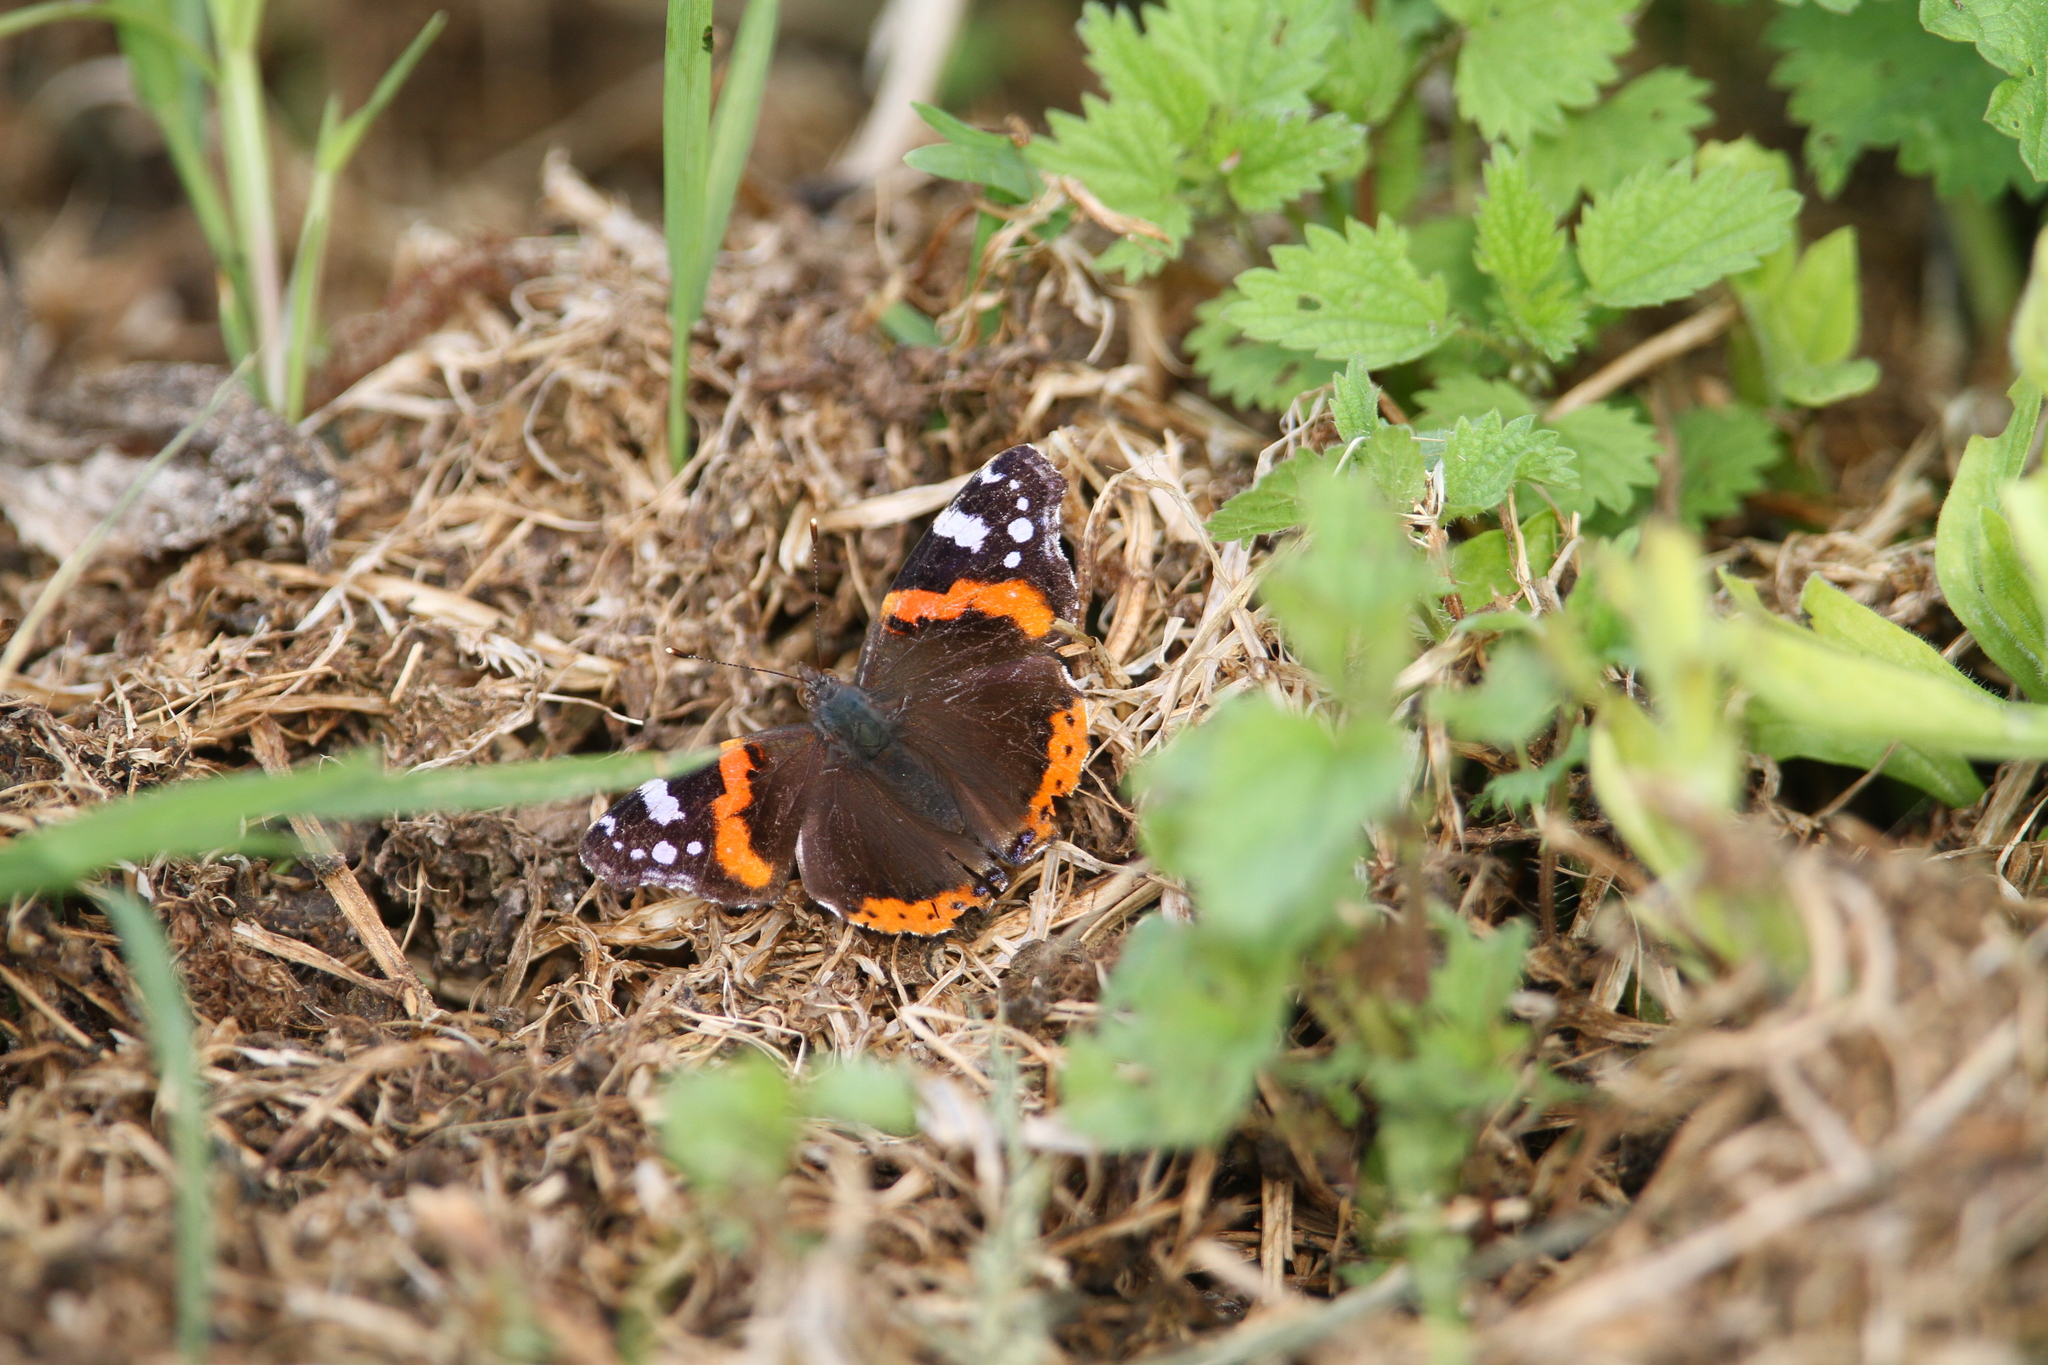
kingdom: Animalia
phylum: Arthropoda
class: Insecta
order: Lepidoptera
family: Nymphalidae
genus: Vanessa
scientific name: Vanessa atalanta
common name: Red admiral
